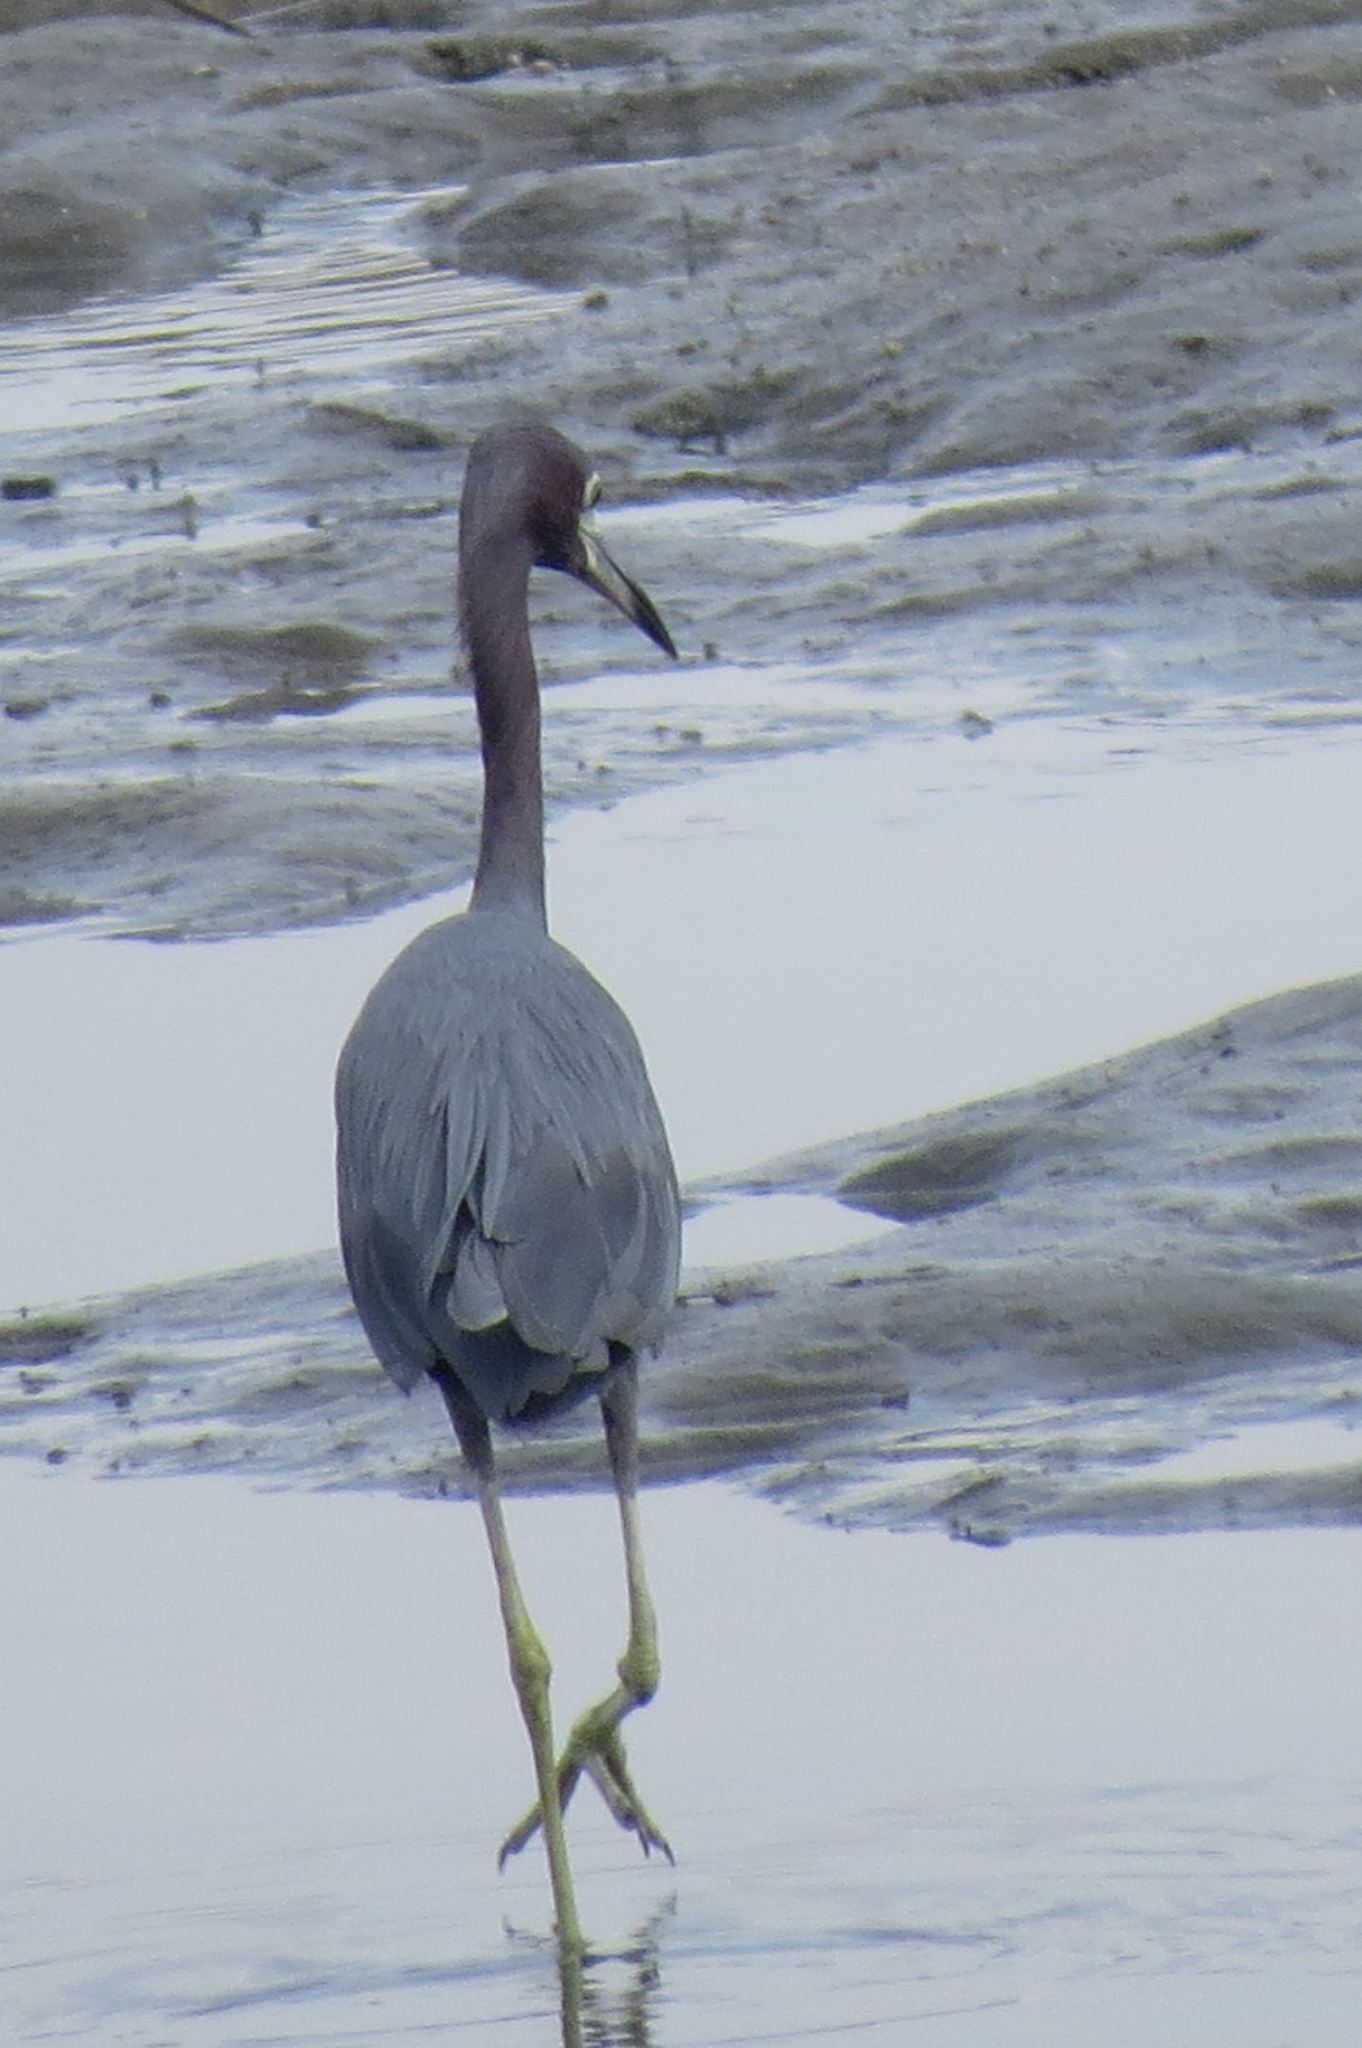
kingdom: Animalia
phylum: Chordata
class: Aves
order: Pelecaniformes
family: Ardeidae
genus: Egretta
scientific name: Egretta caerulea
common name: Little blue heron
